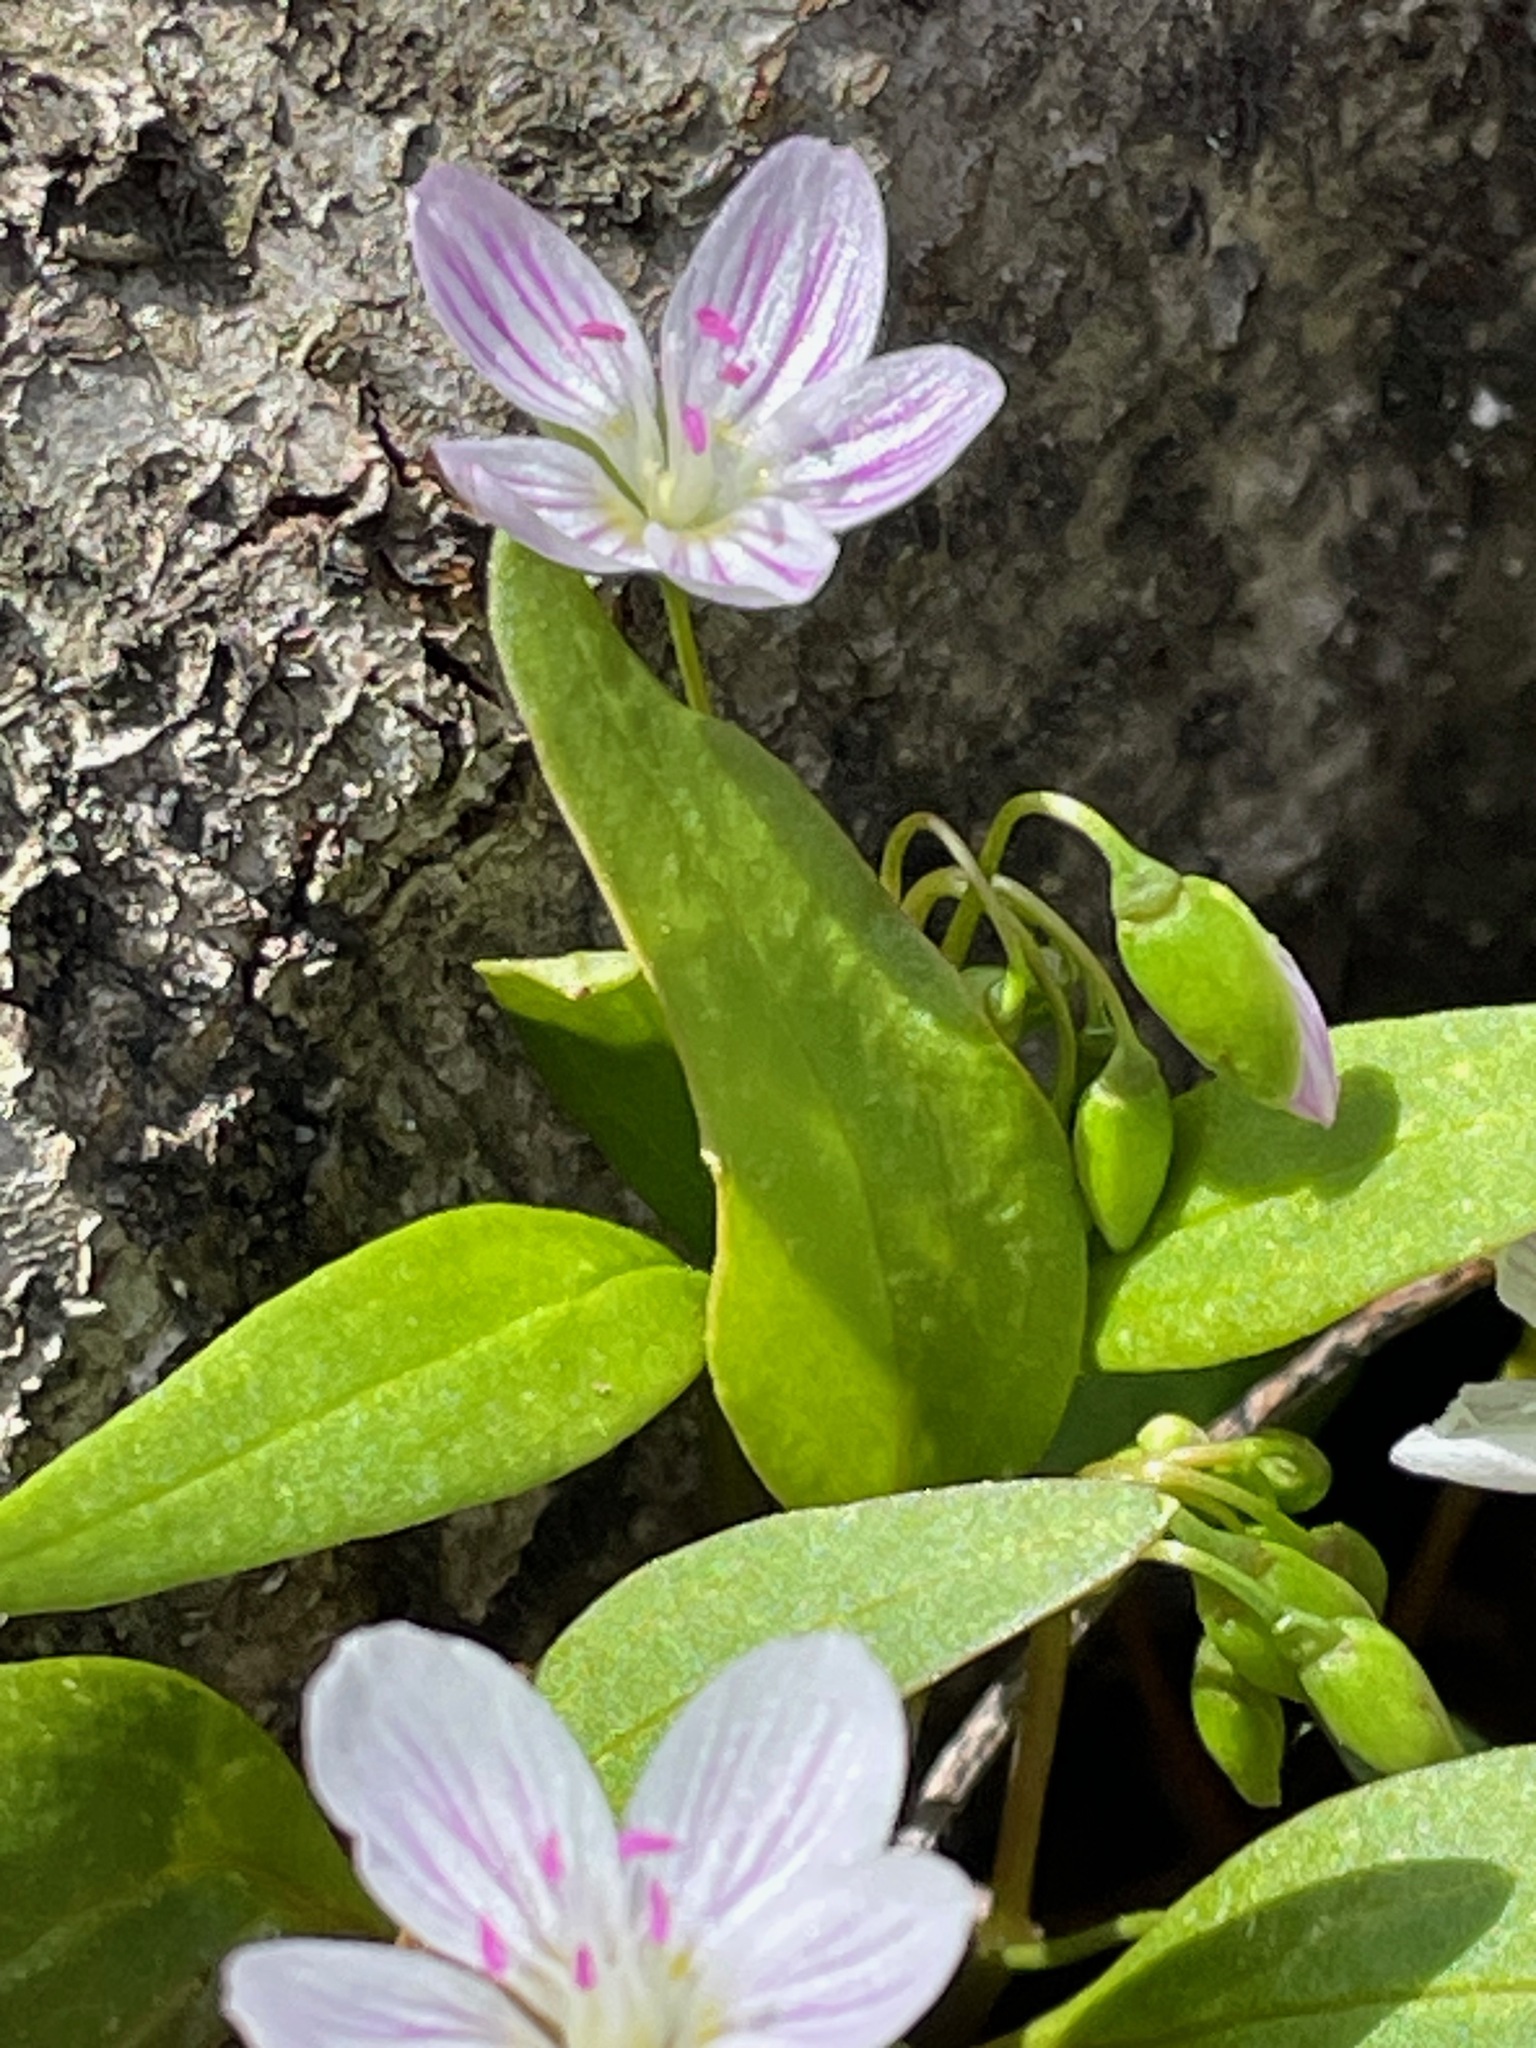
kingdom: Plantae
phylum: Tracheophyta
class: Magnoliopsida
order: Caryophyllales
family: Montiaceae
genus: Claytonia
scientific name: Claytonia caroliniana
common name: Carolina spring beauty
